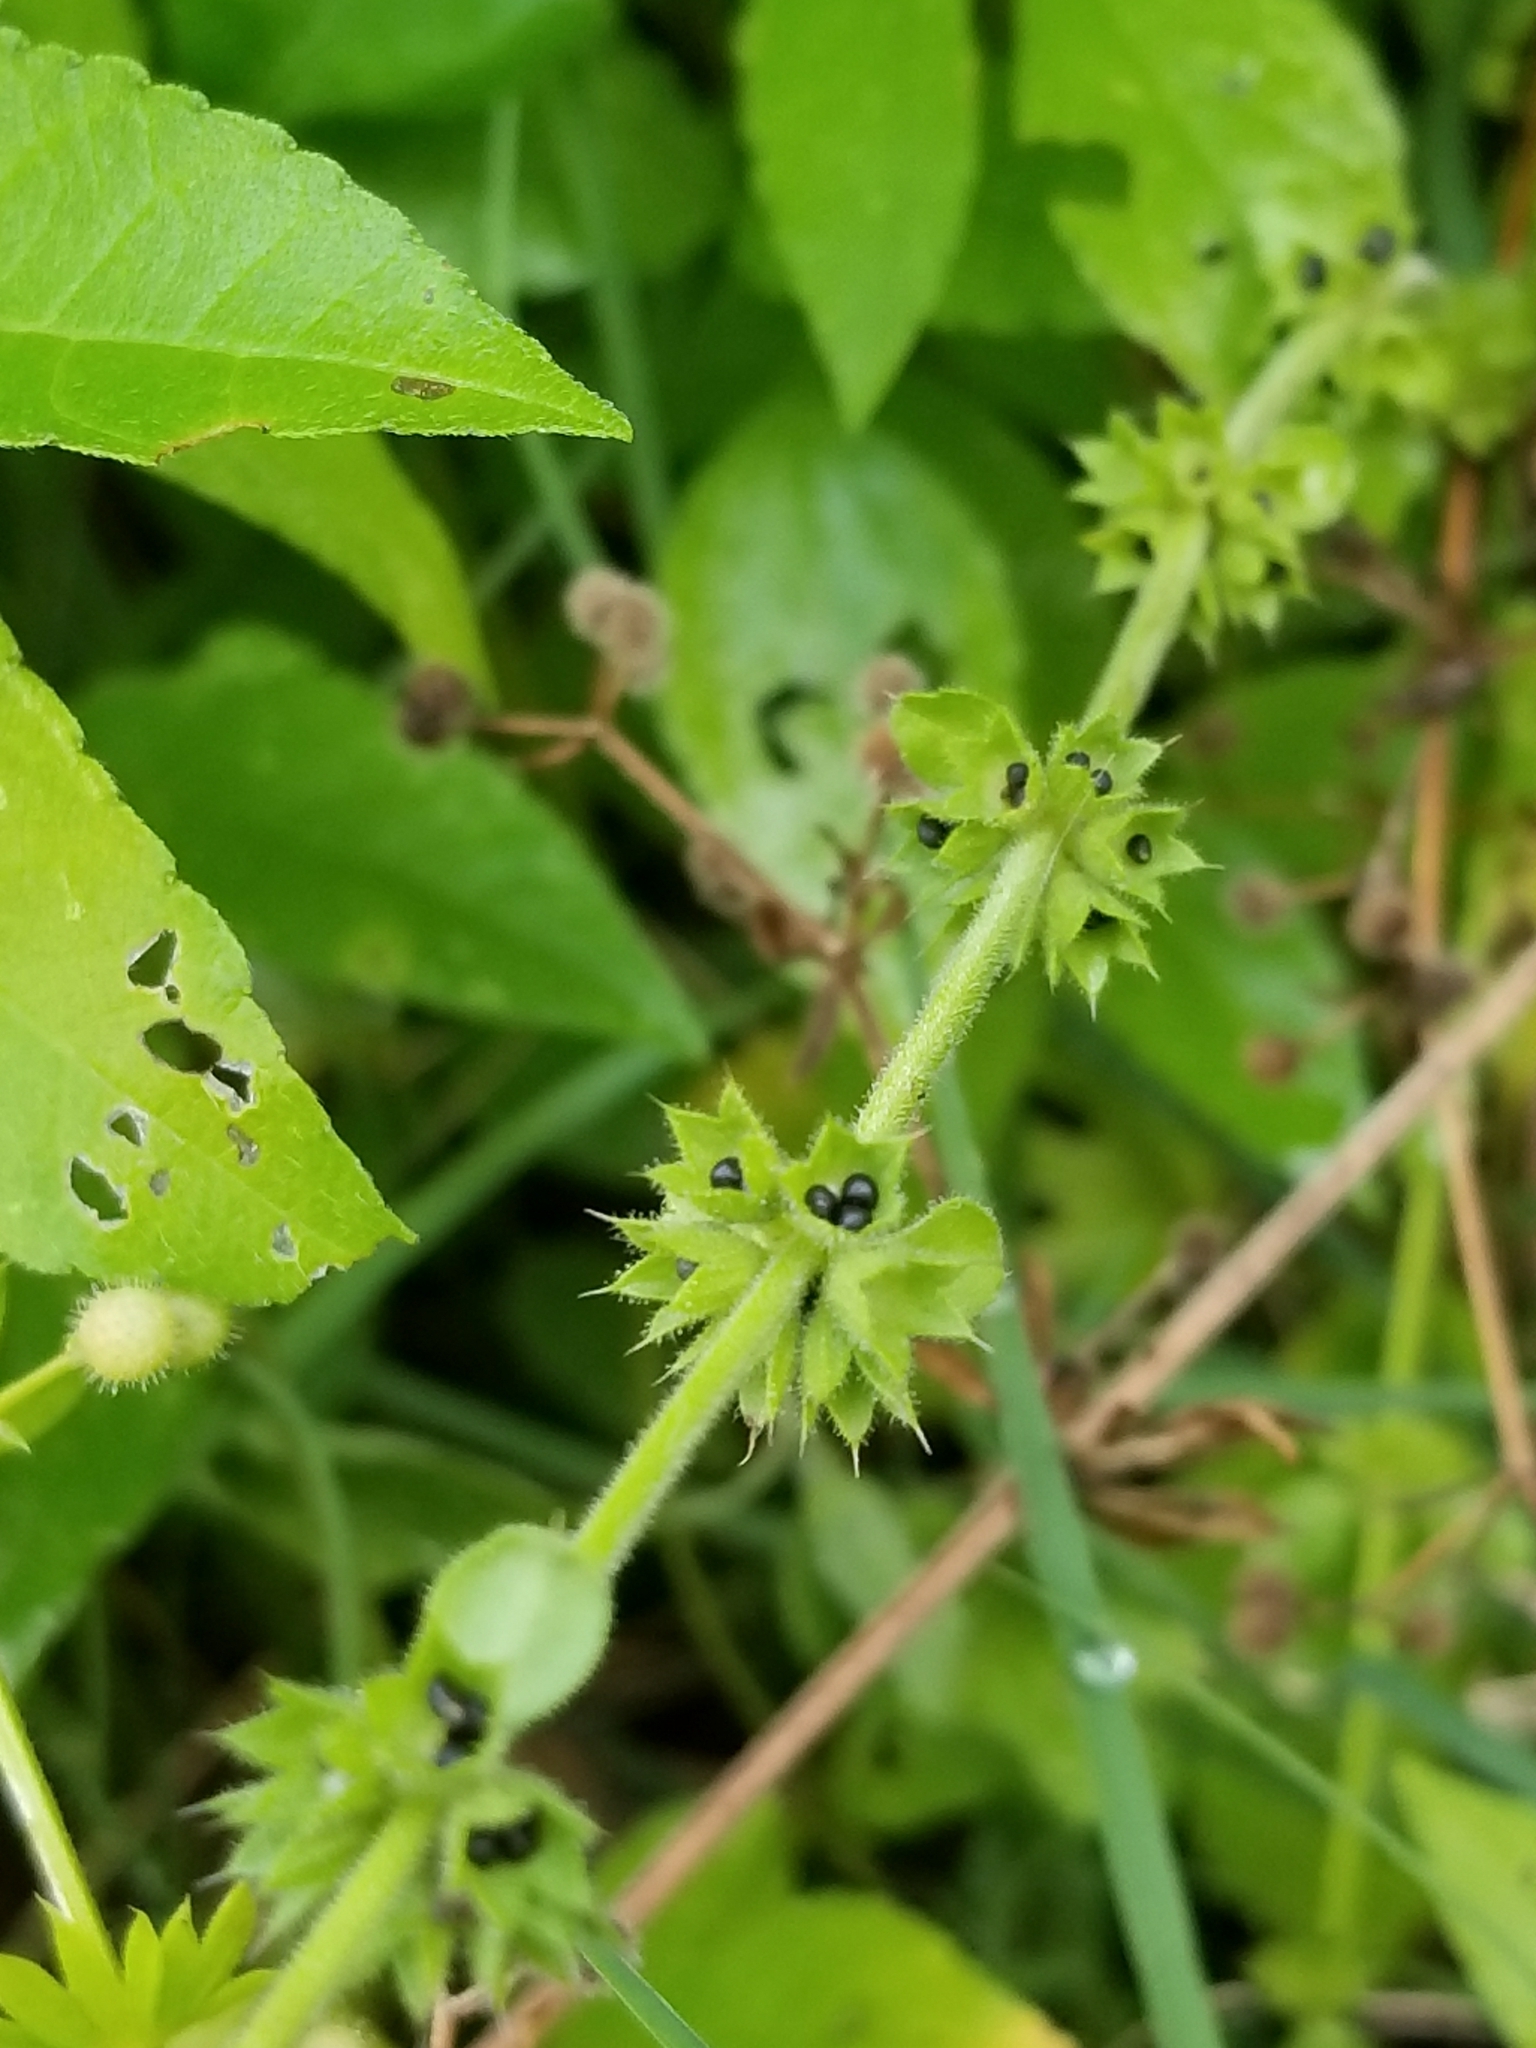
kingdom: Plantae
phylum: Tracheophyta
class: Magnoliopsida
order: Lamiales
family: Lamiaceae
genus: Stachys
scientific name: Stachys
